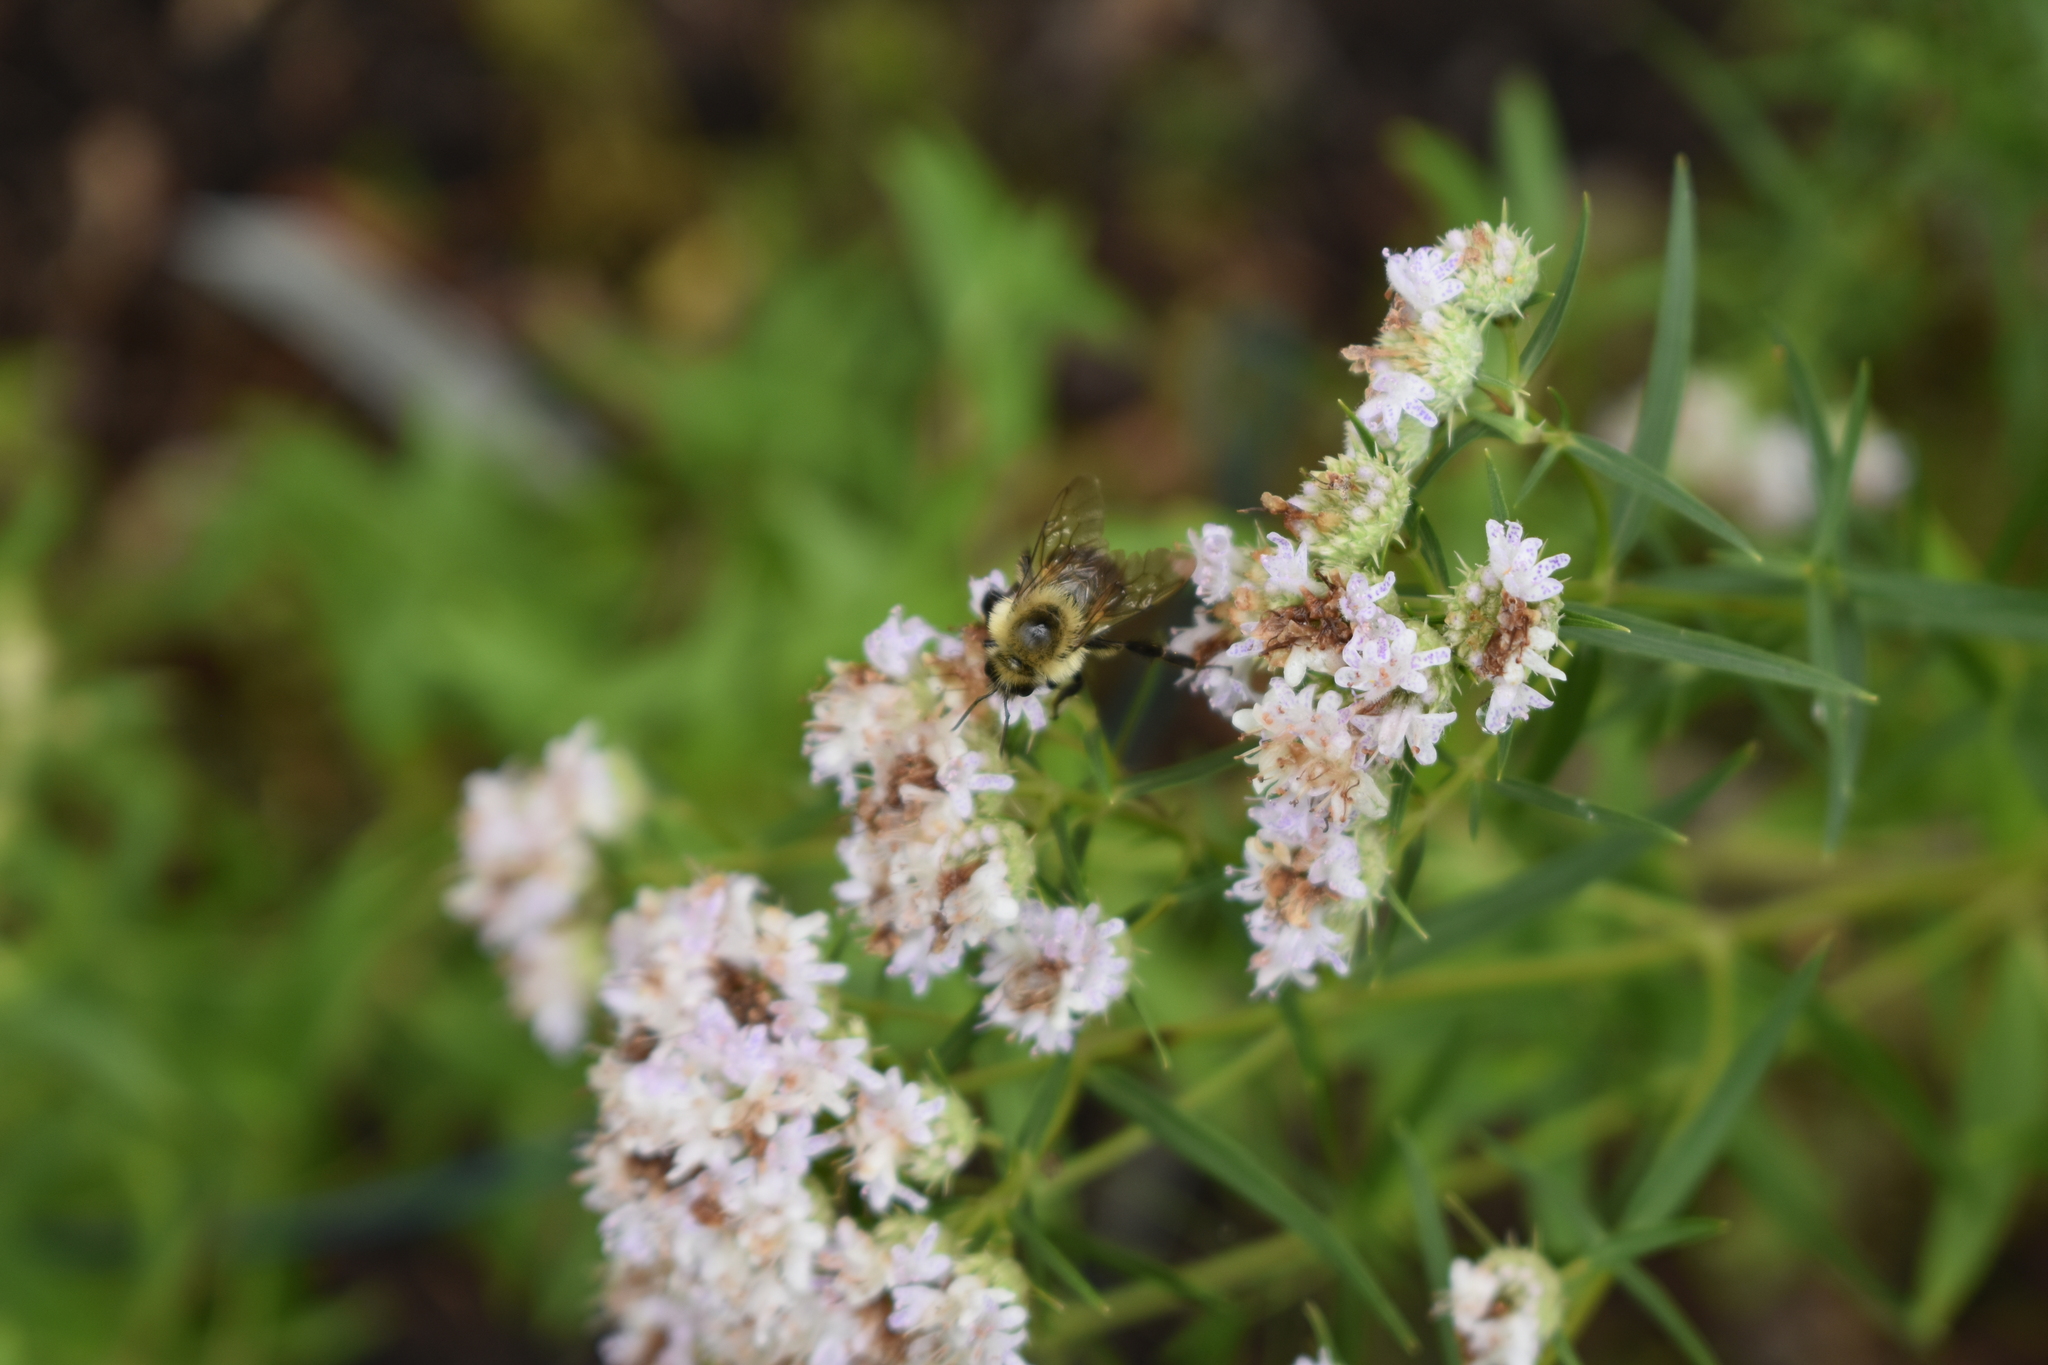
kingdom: Animalia
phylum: Arthropoda
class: Insecta
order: Hymenoptera
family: Apidae
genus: Bombus
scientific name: Bombus bimaculatus
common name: Two-spotted bumble bee
